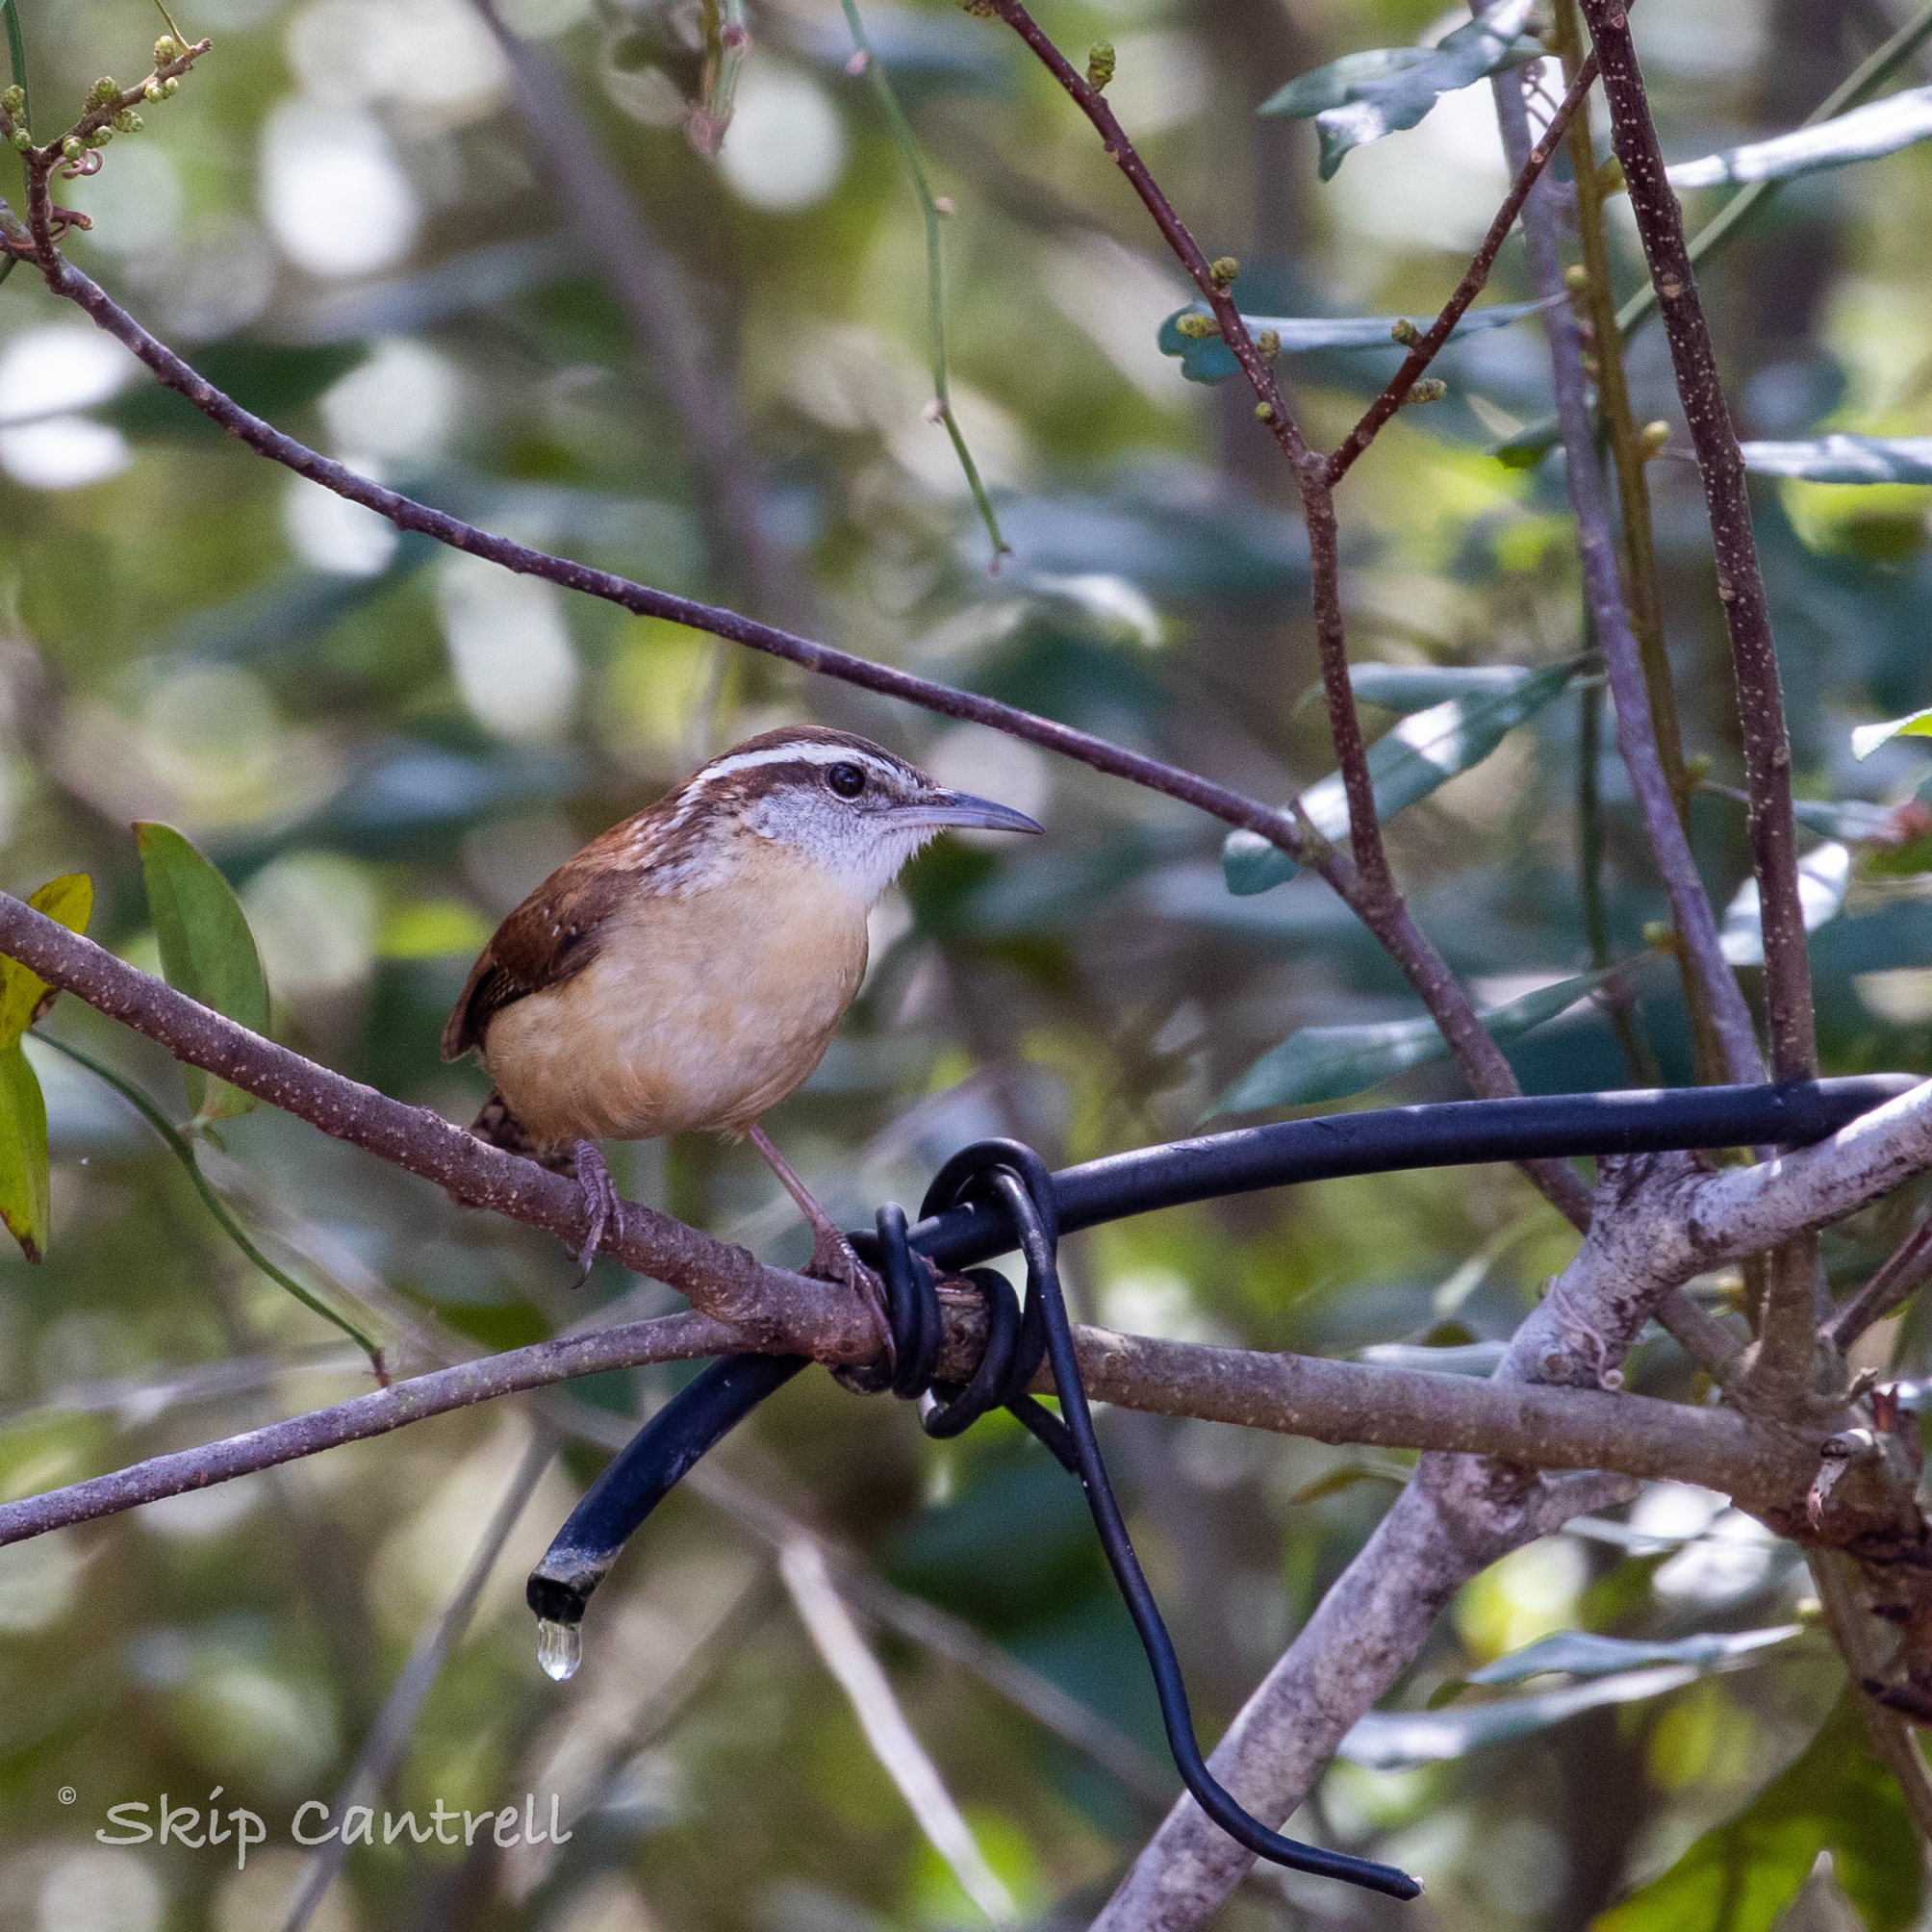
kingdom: Animalia
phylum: Chordata
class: Aves
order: Passeriformes
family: Troglodytidae
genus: Thryothorus
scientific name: Thryothorus ludovicianus
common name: Carolina wren
